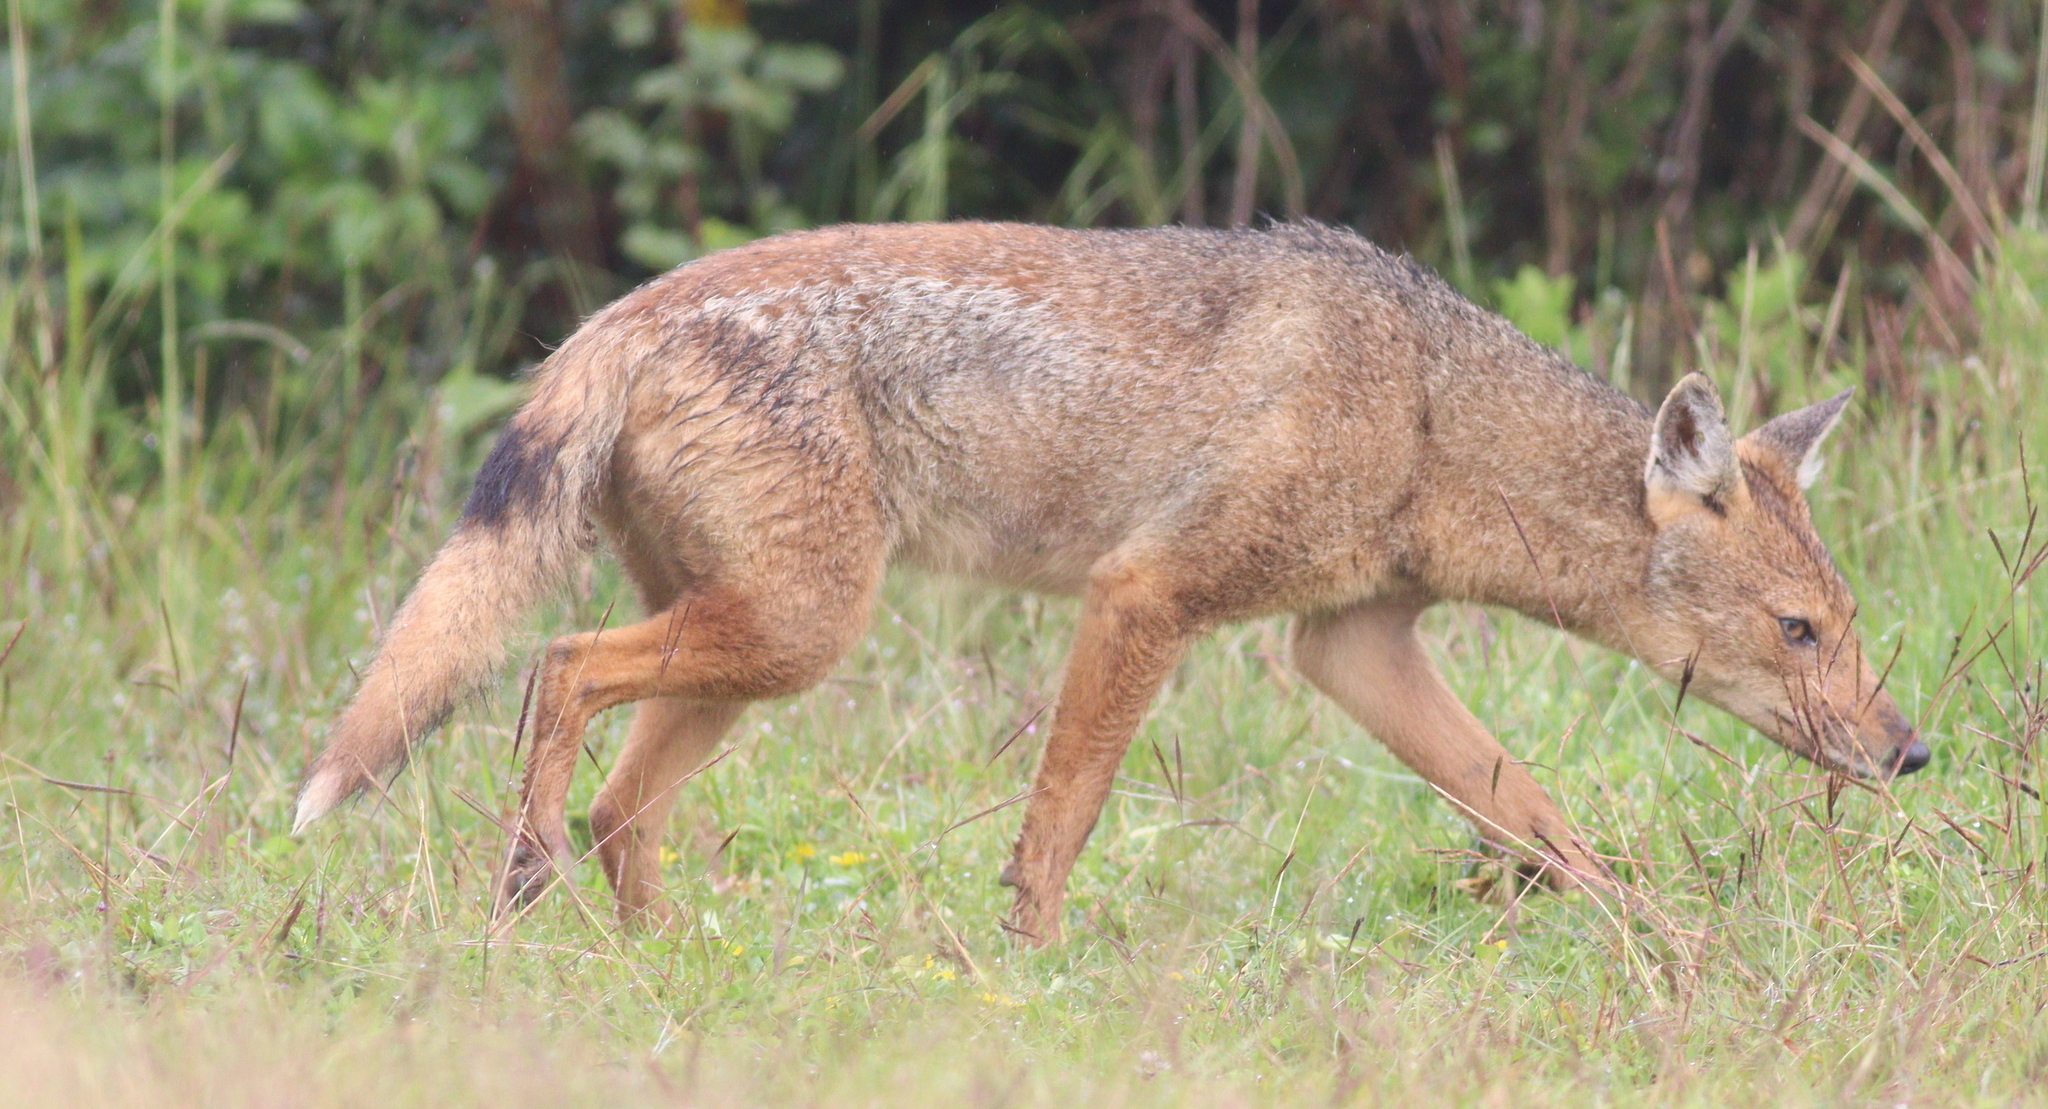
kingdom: Animalia
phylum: Chordata
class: Mammalia
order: Carnivora
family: Canidae
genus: Lupulella
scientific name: Lupulella
